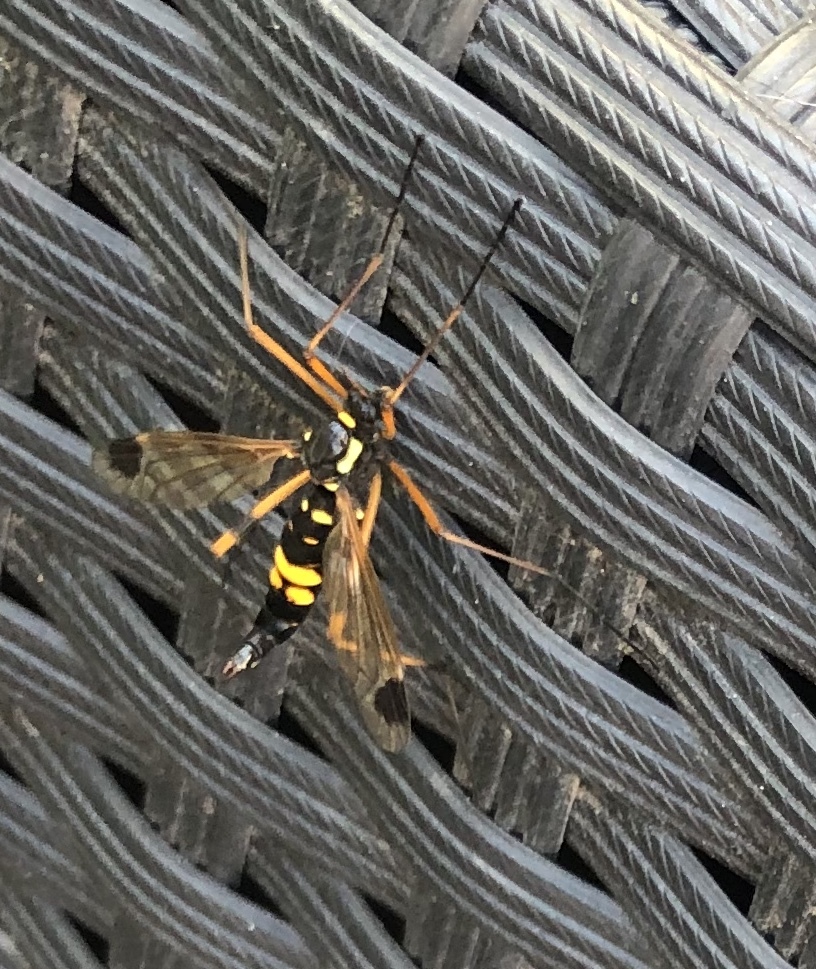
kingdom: Animalia
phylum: Arthropoda
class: Insecta
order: Diptera
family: Tipulidae
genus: Ctenophora
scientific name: Ctenophora festiva
